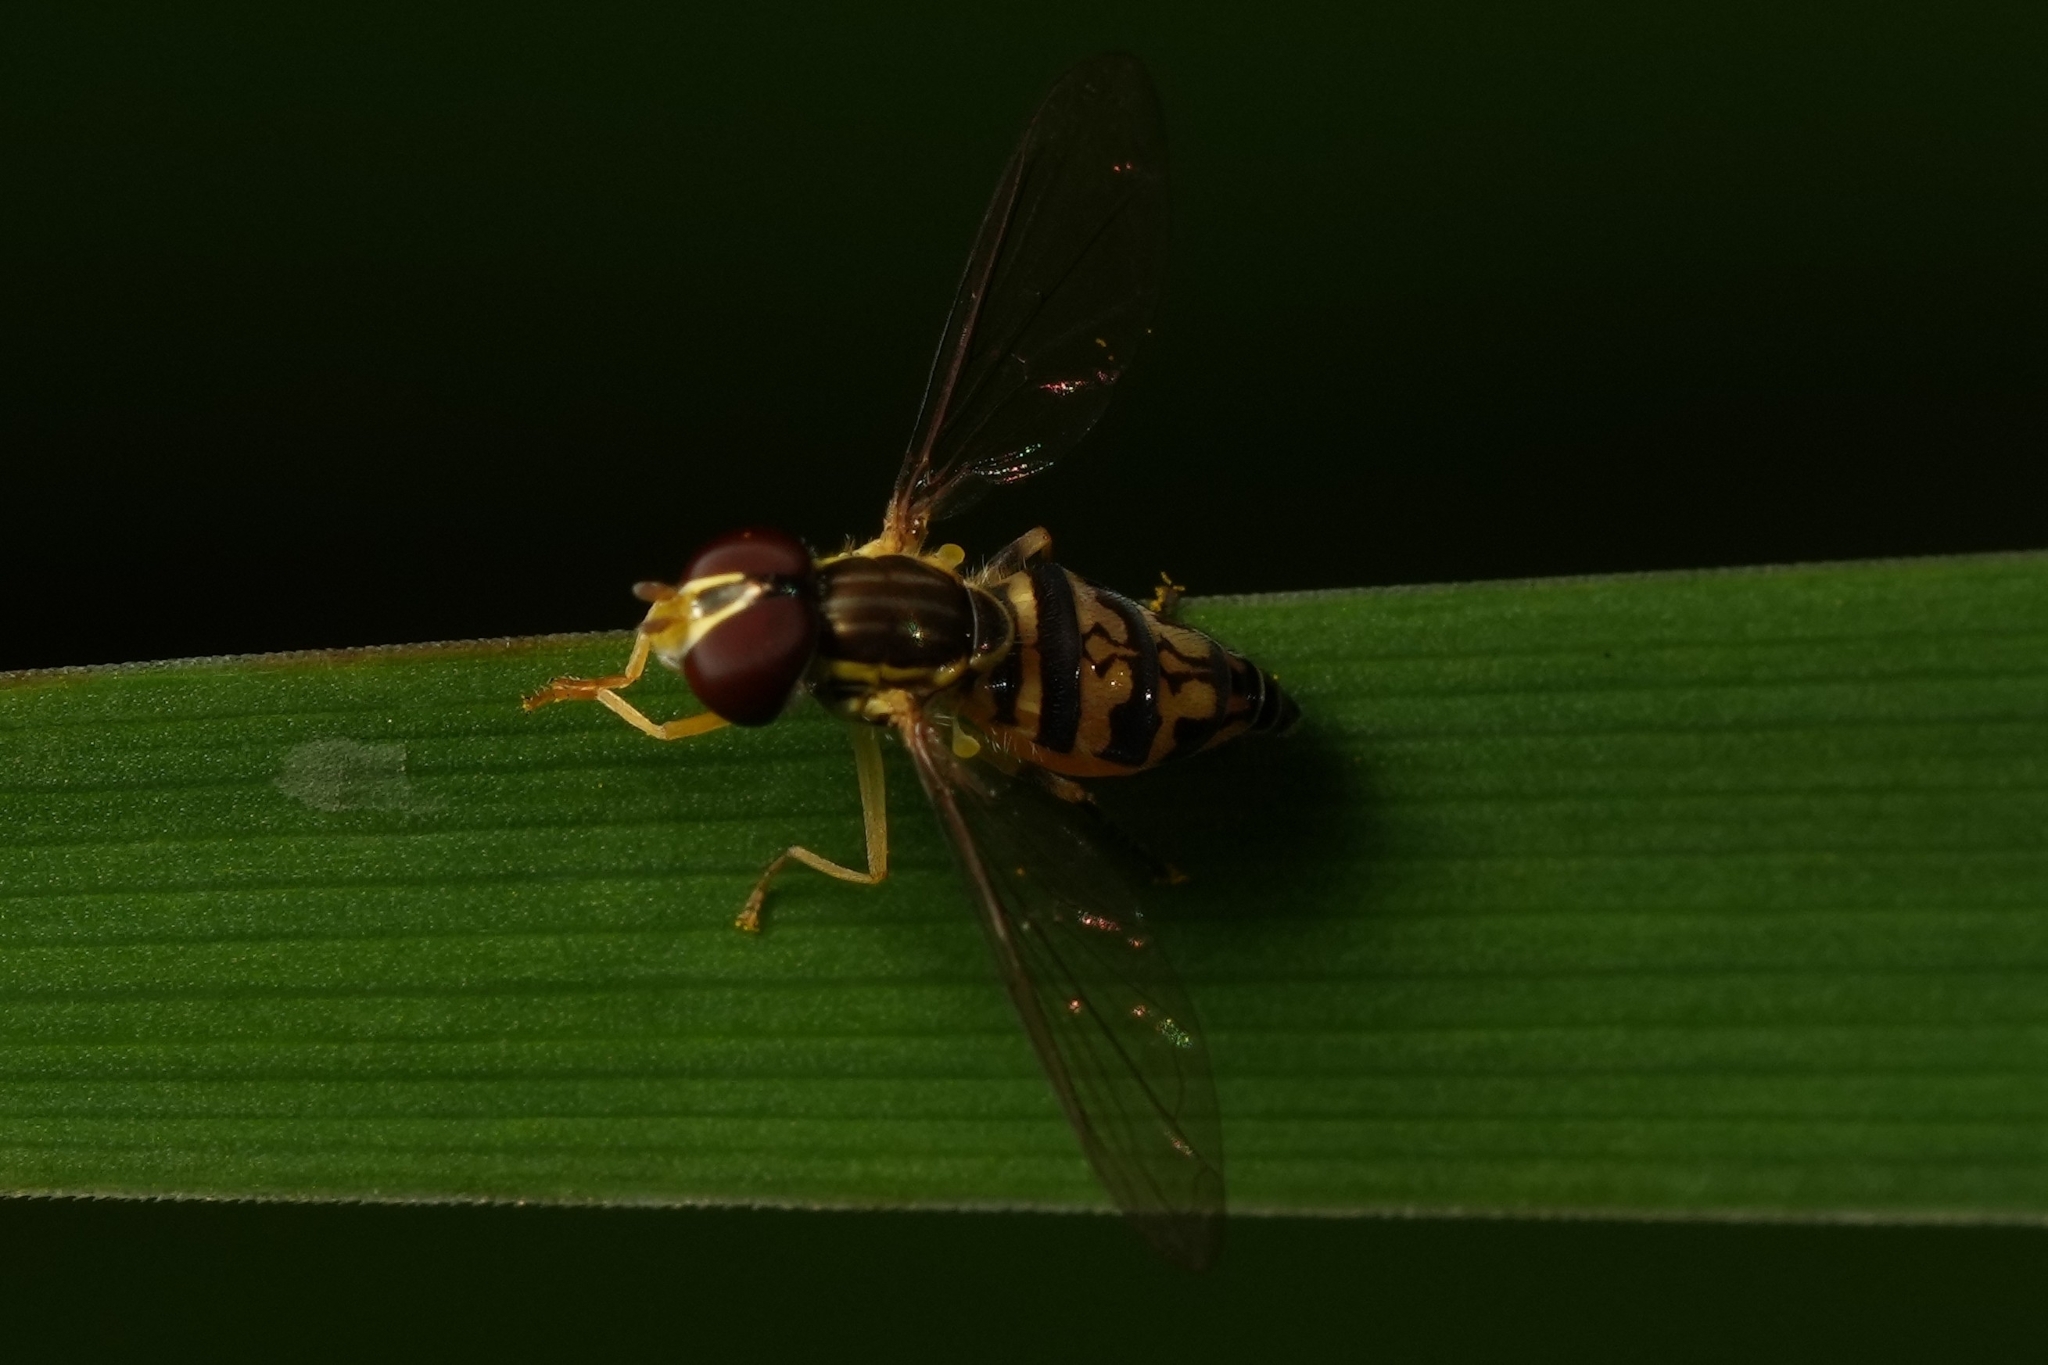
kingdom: Animalia
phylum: Arthropoda
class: Insecta
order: Diptera
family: Syrphidae
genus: Toxomerus
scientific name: Toxomerus geminatus
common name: Eastern calligrapher
